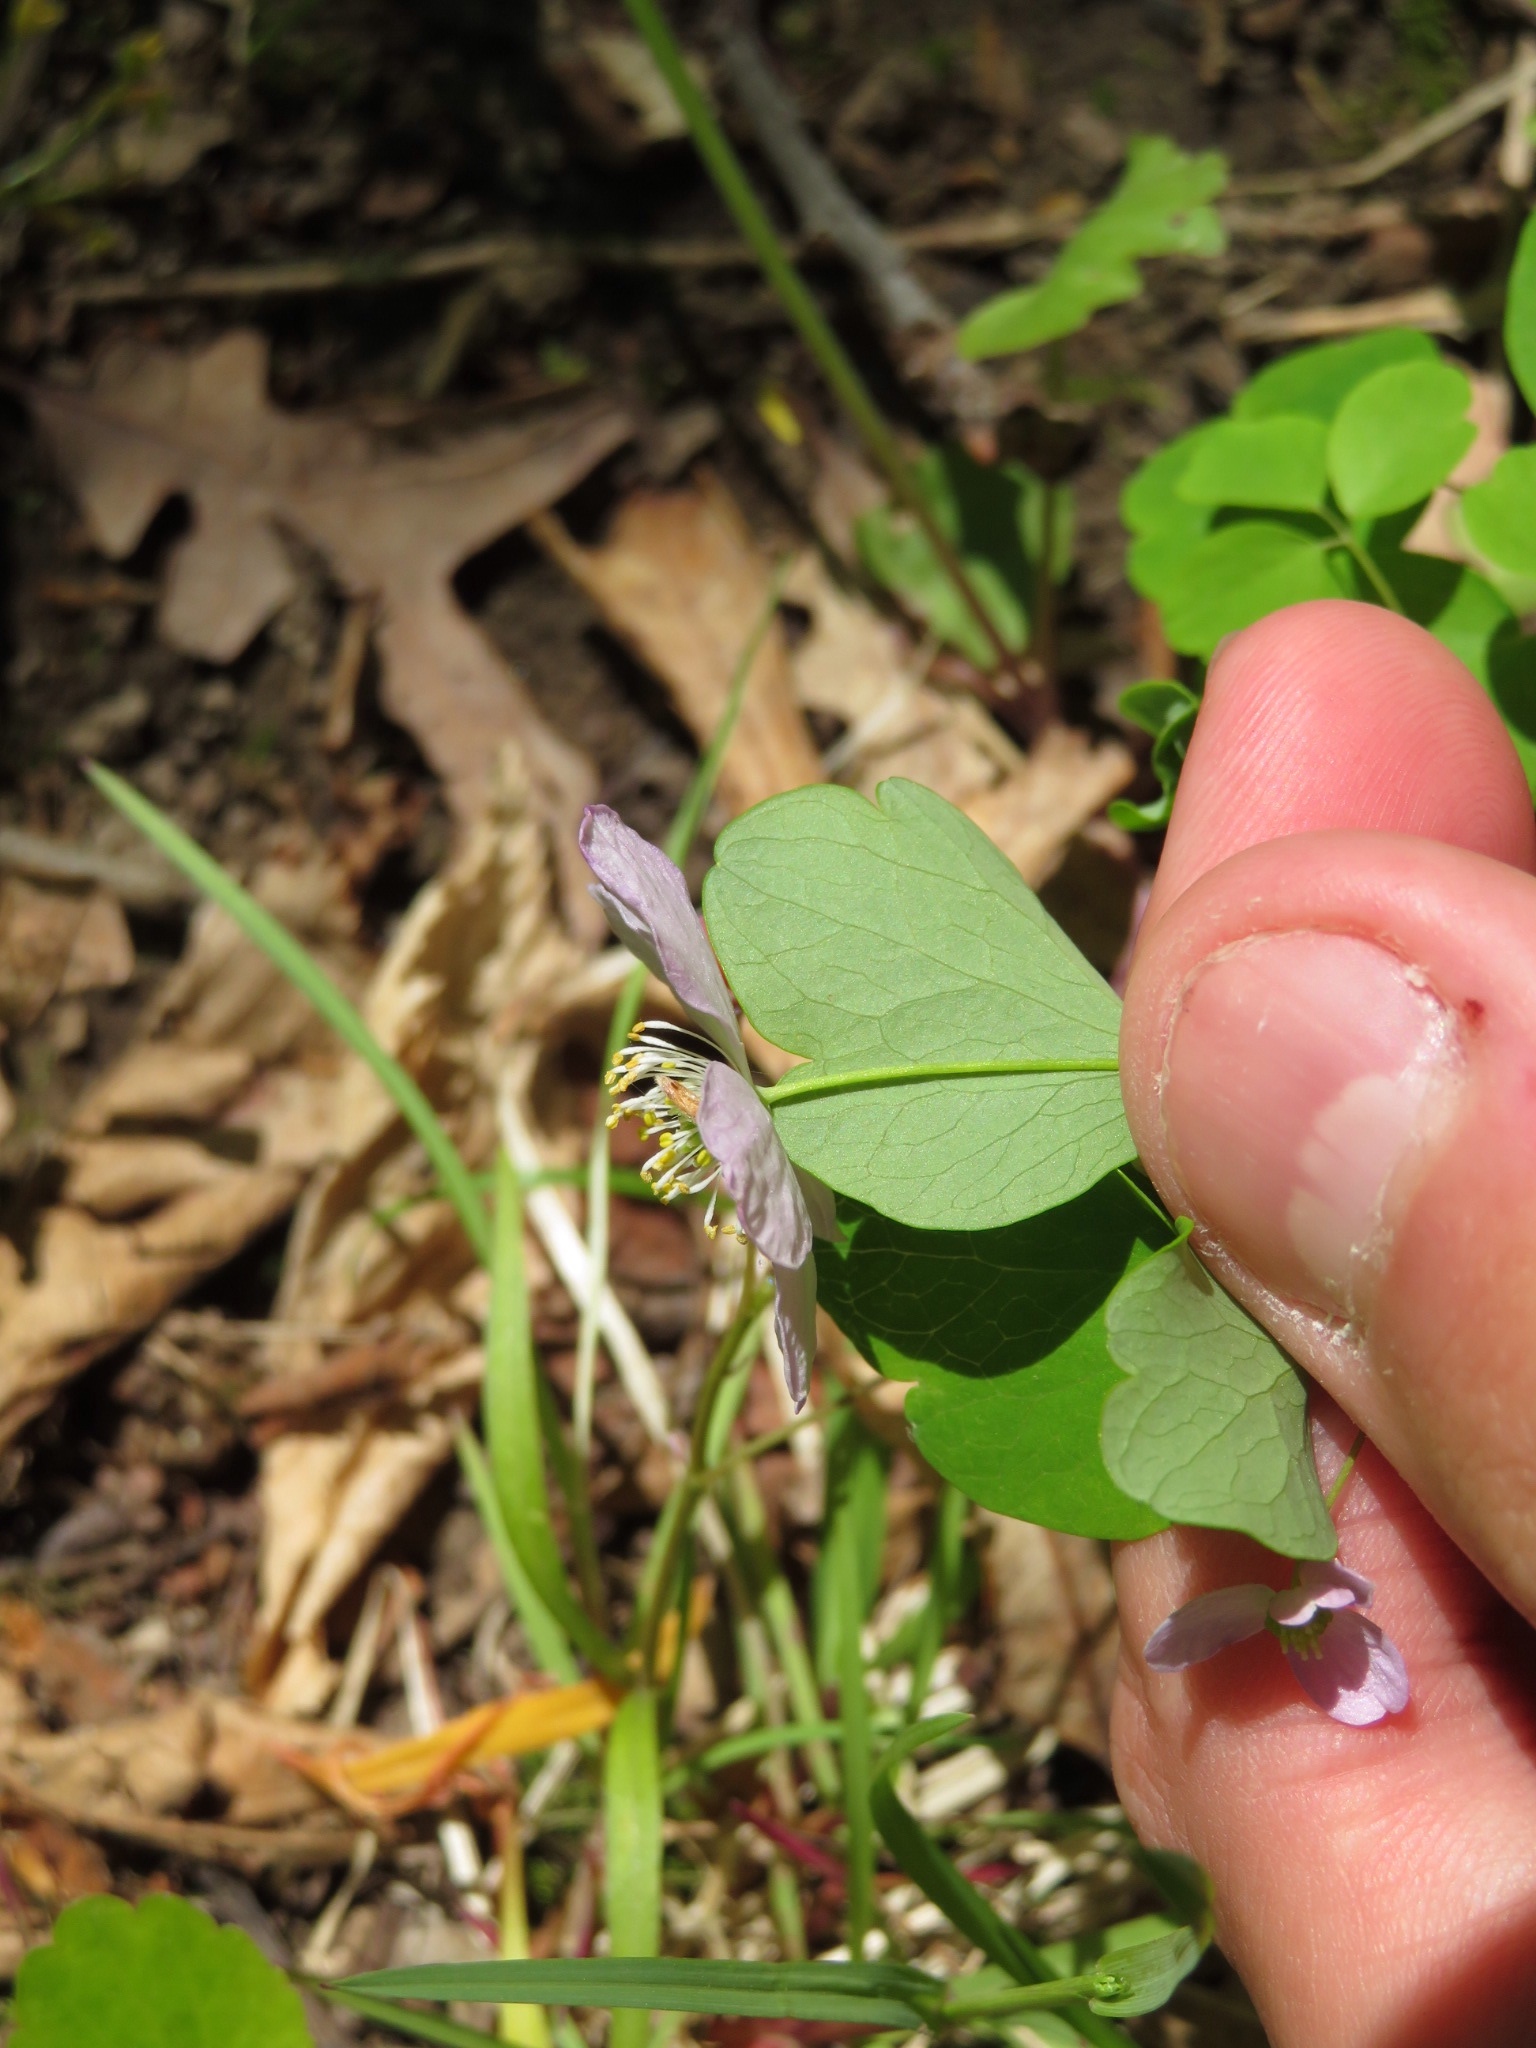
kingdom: Plantae
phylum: Tracheophyta
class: Magnoliopsida
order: Ranunculales
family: Ranunculaceae
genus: Thalictrum
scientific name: Thalictrum thalictroides
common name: Rue-anemone
